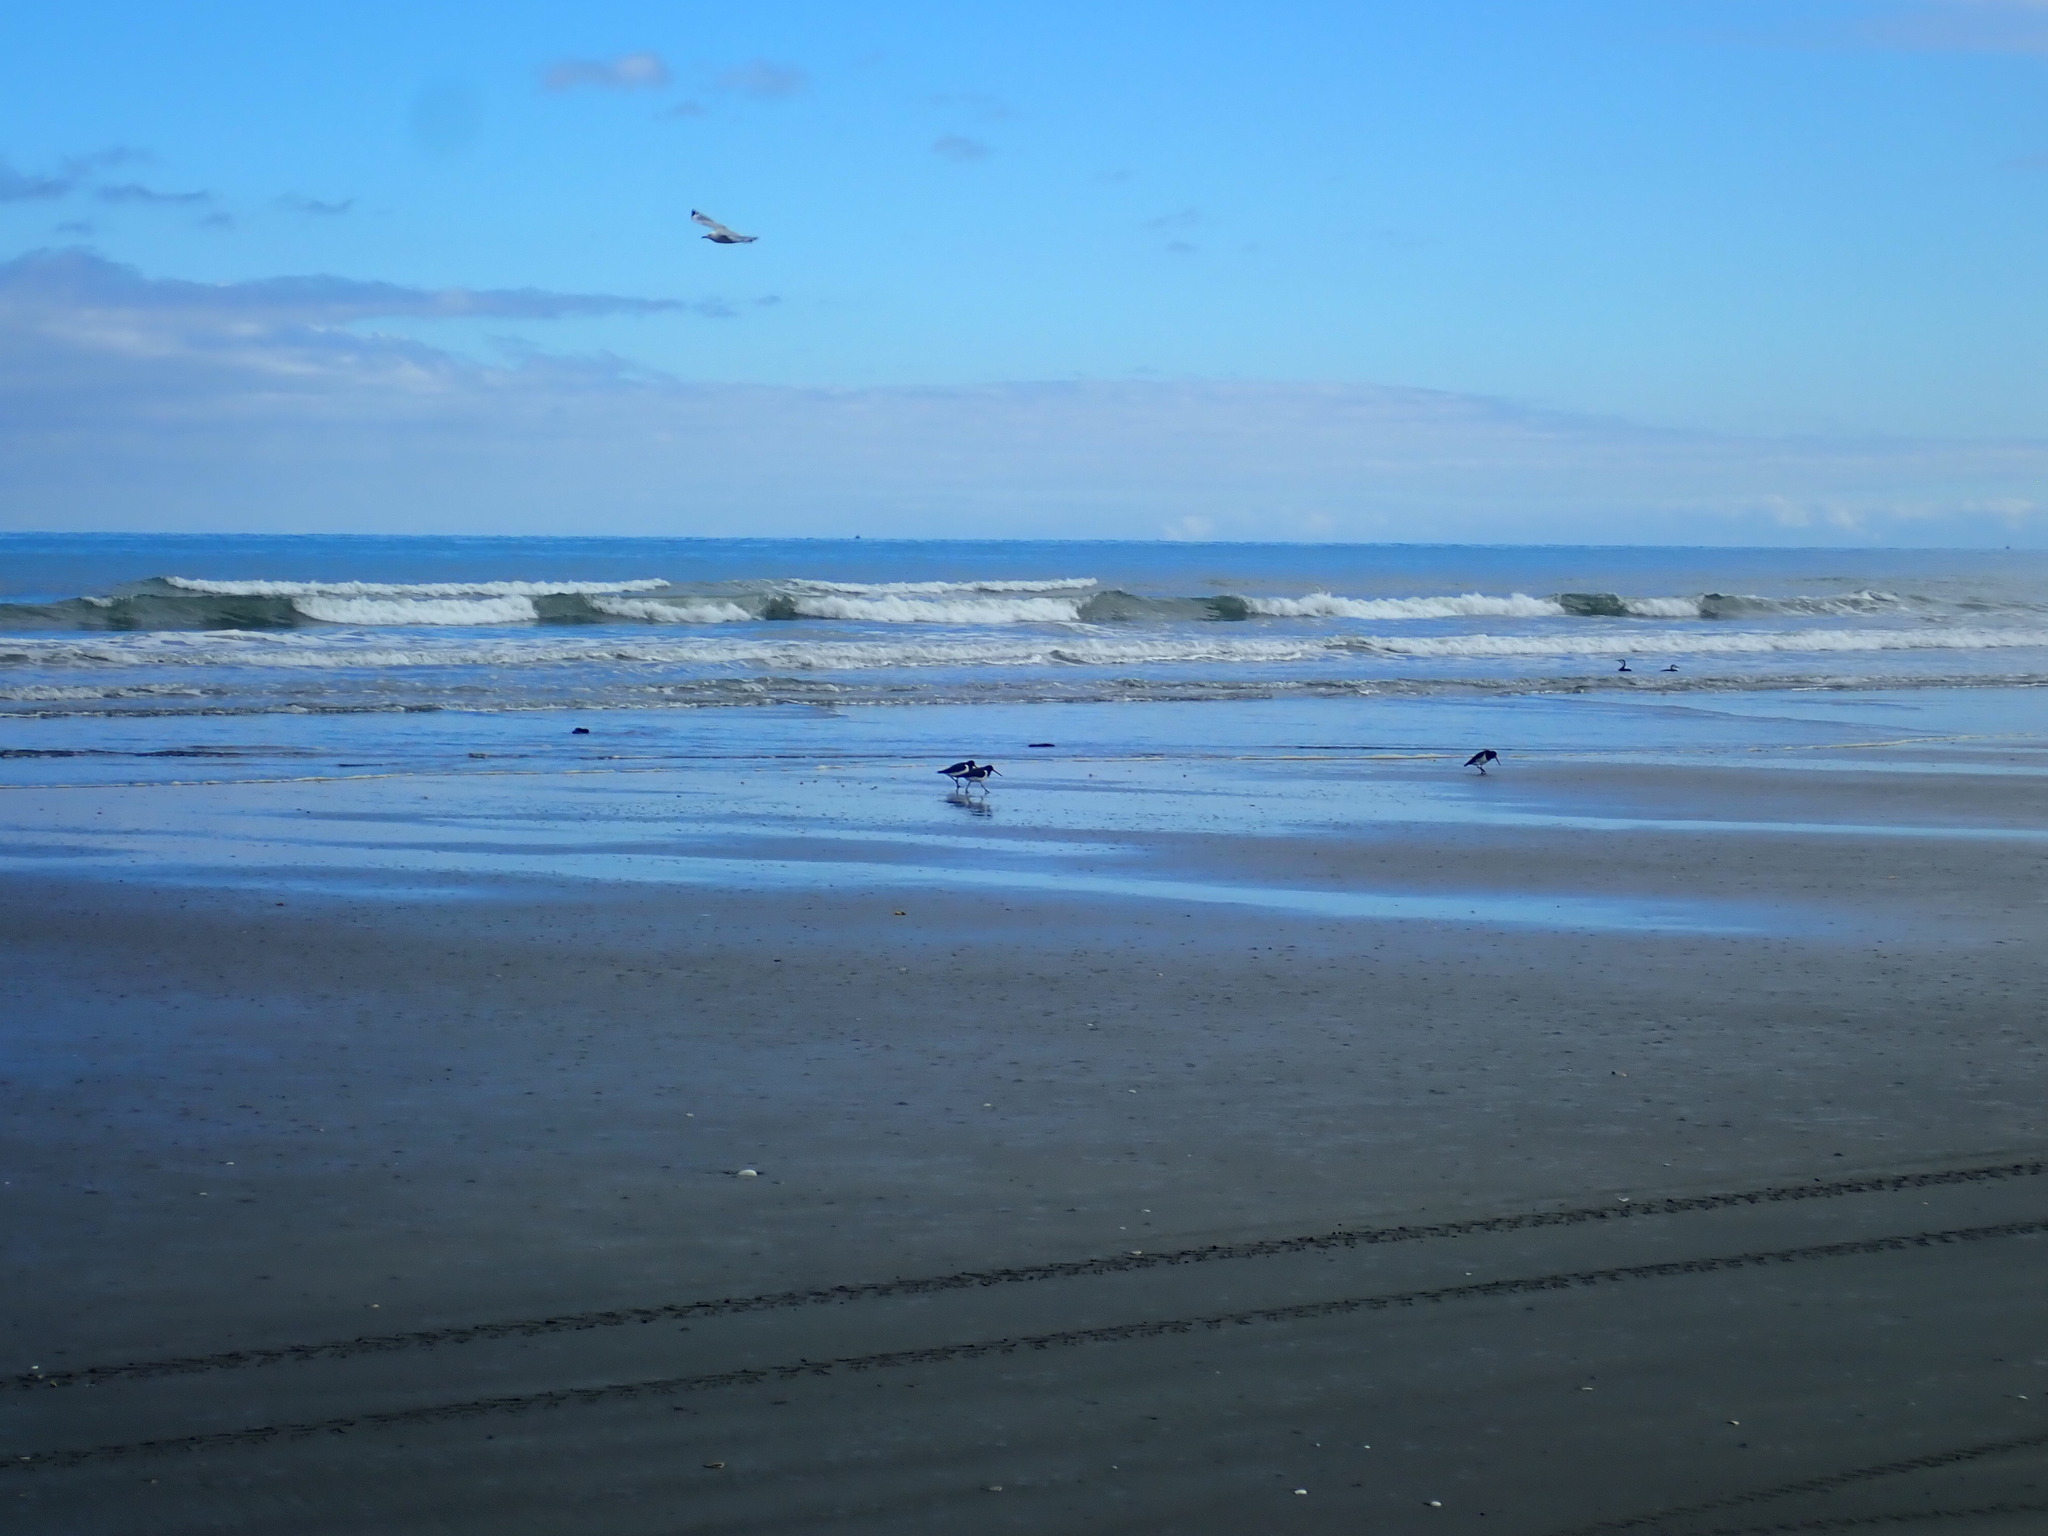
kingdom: Animalia
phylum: Chordata
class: Aves
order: Charadriiformes
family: Haematopodidae
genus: Haematopus
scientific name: Haematopus finschi
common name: South island oystercatcher
